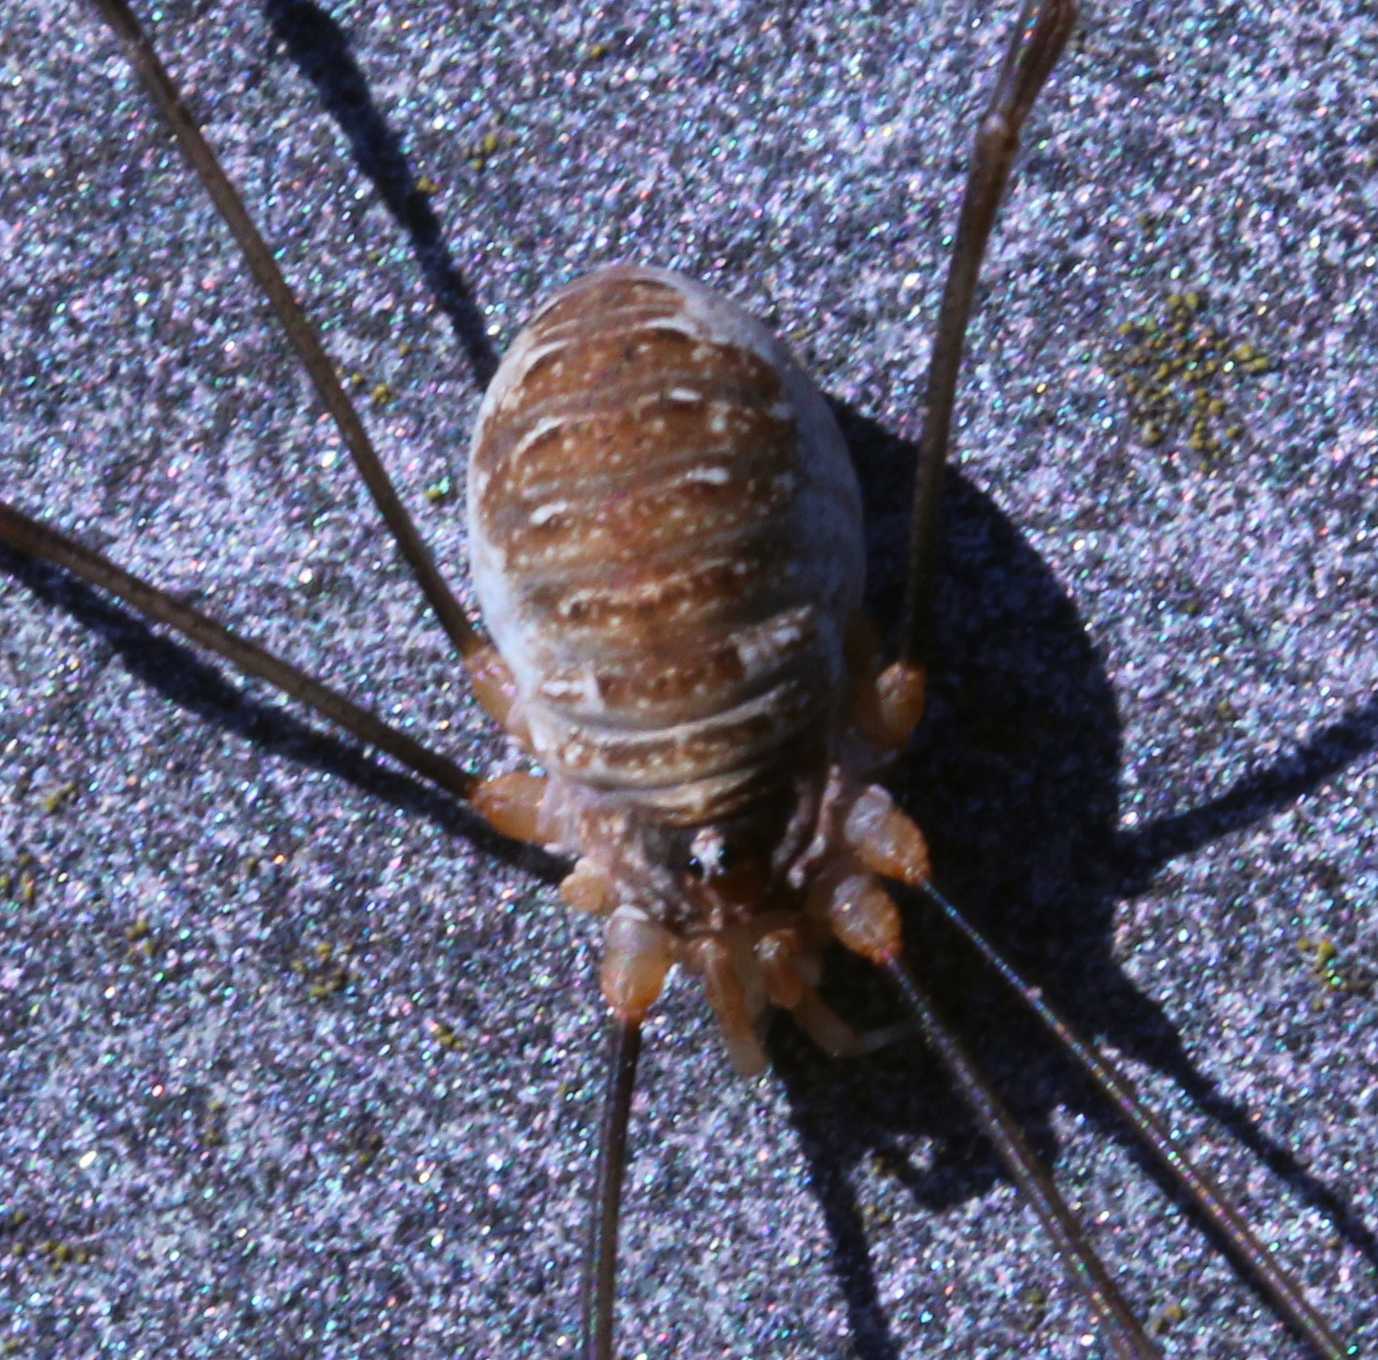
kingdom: Animalia
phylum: Arthropoda
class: Arachnida
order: Opiliones
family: Phalangiidae
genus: Opilio
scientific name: Opilio canestrinii
